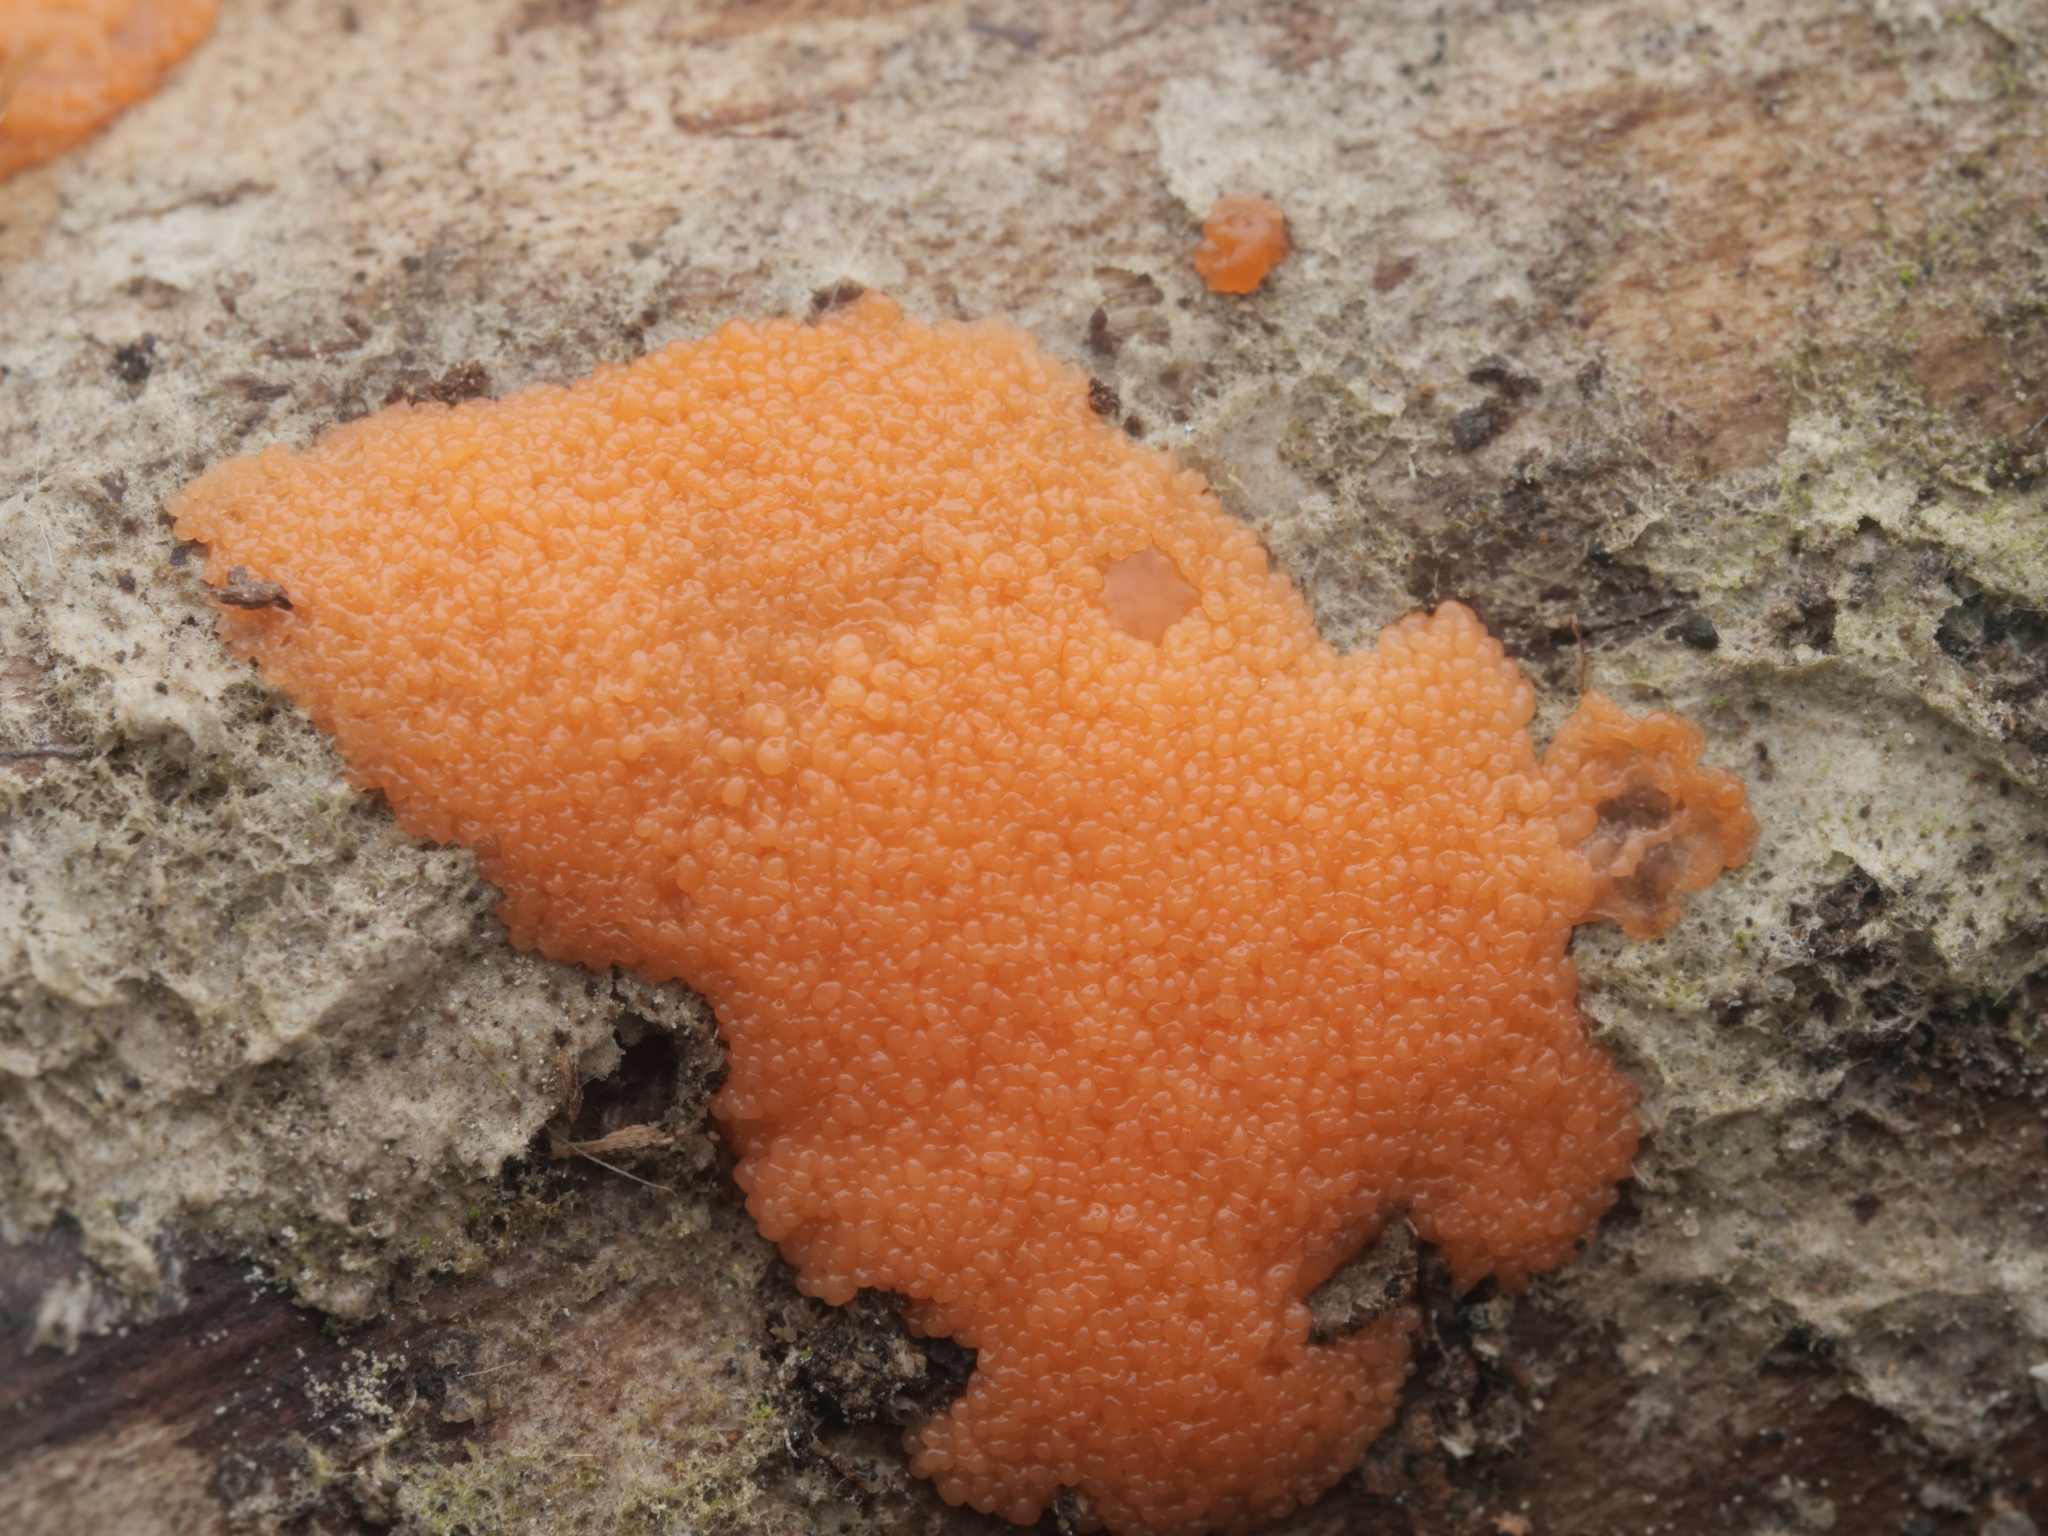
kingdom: Protozoa
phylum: Mycetozoa
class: Myxomycetes
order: Cribrariales
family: Tubiferaceae
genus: Tubifera
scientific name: Tubifera ferruginosa
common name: Red raspberry slime mold
